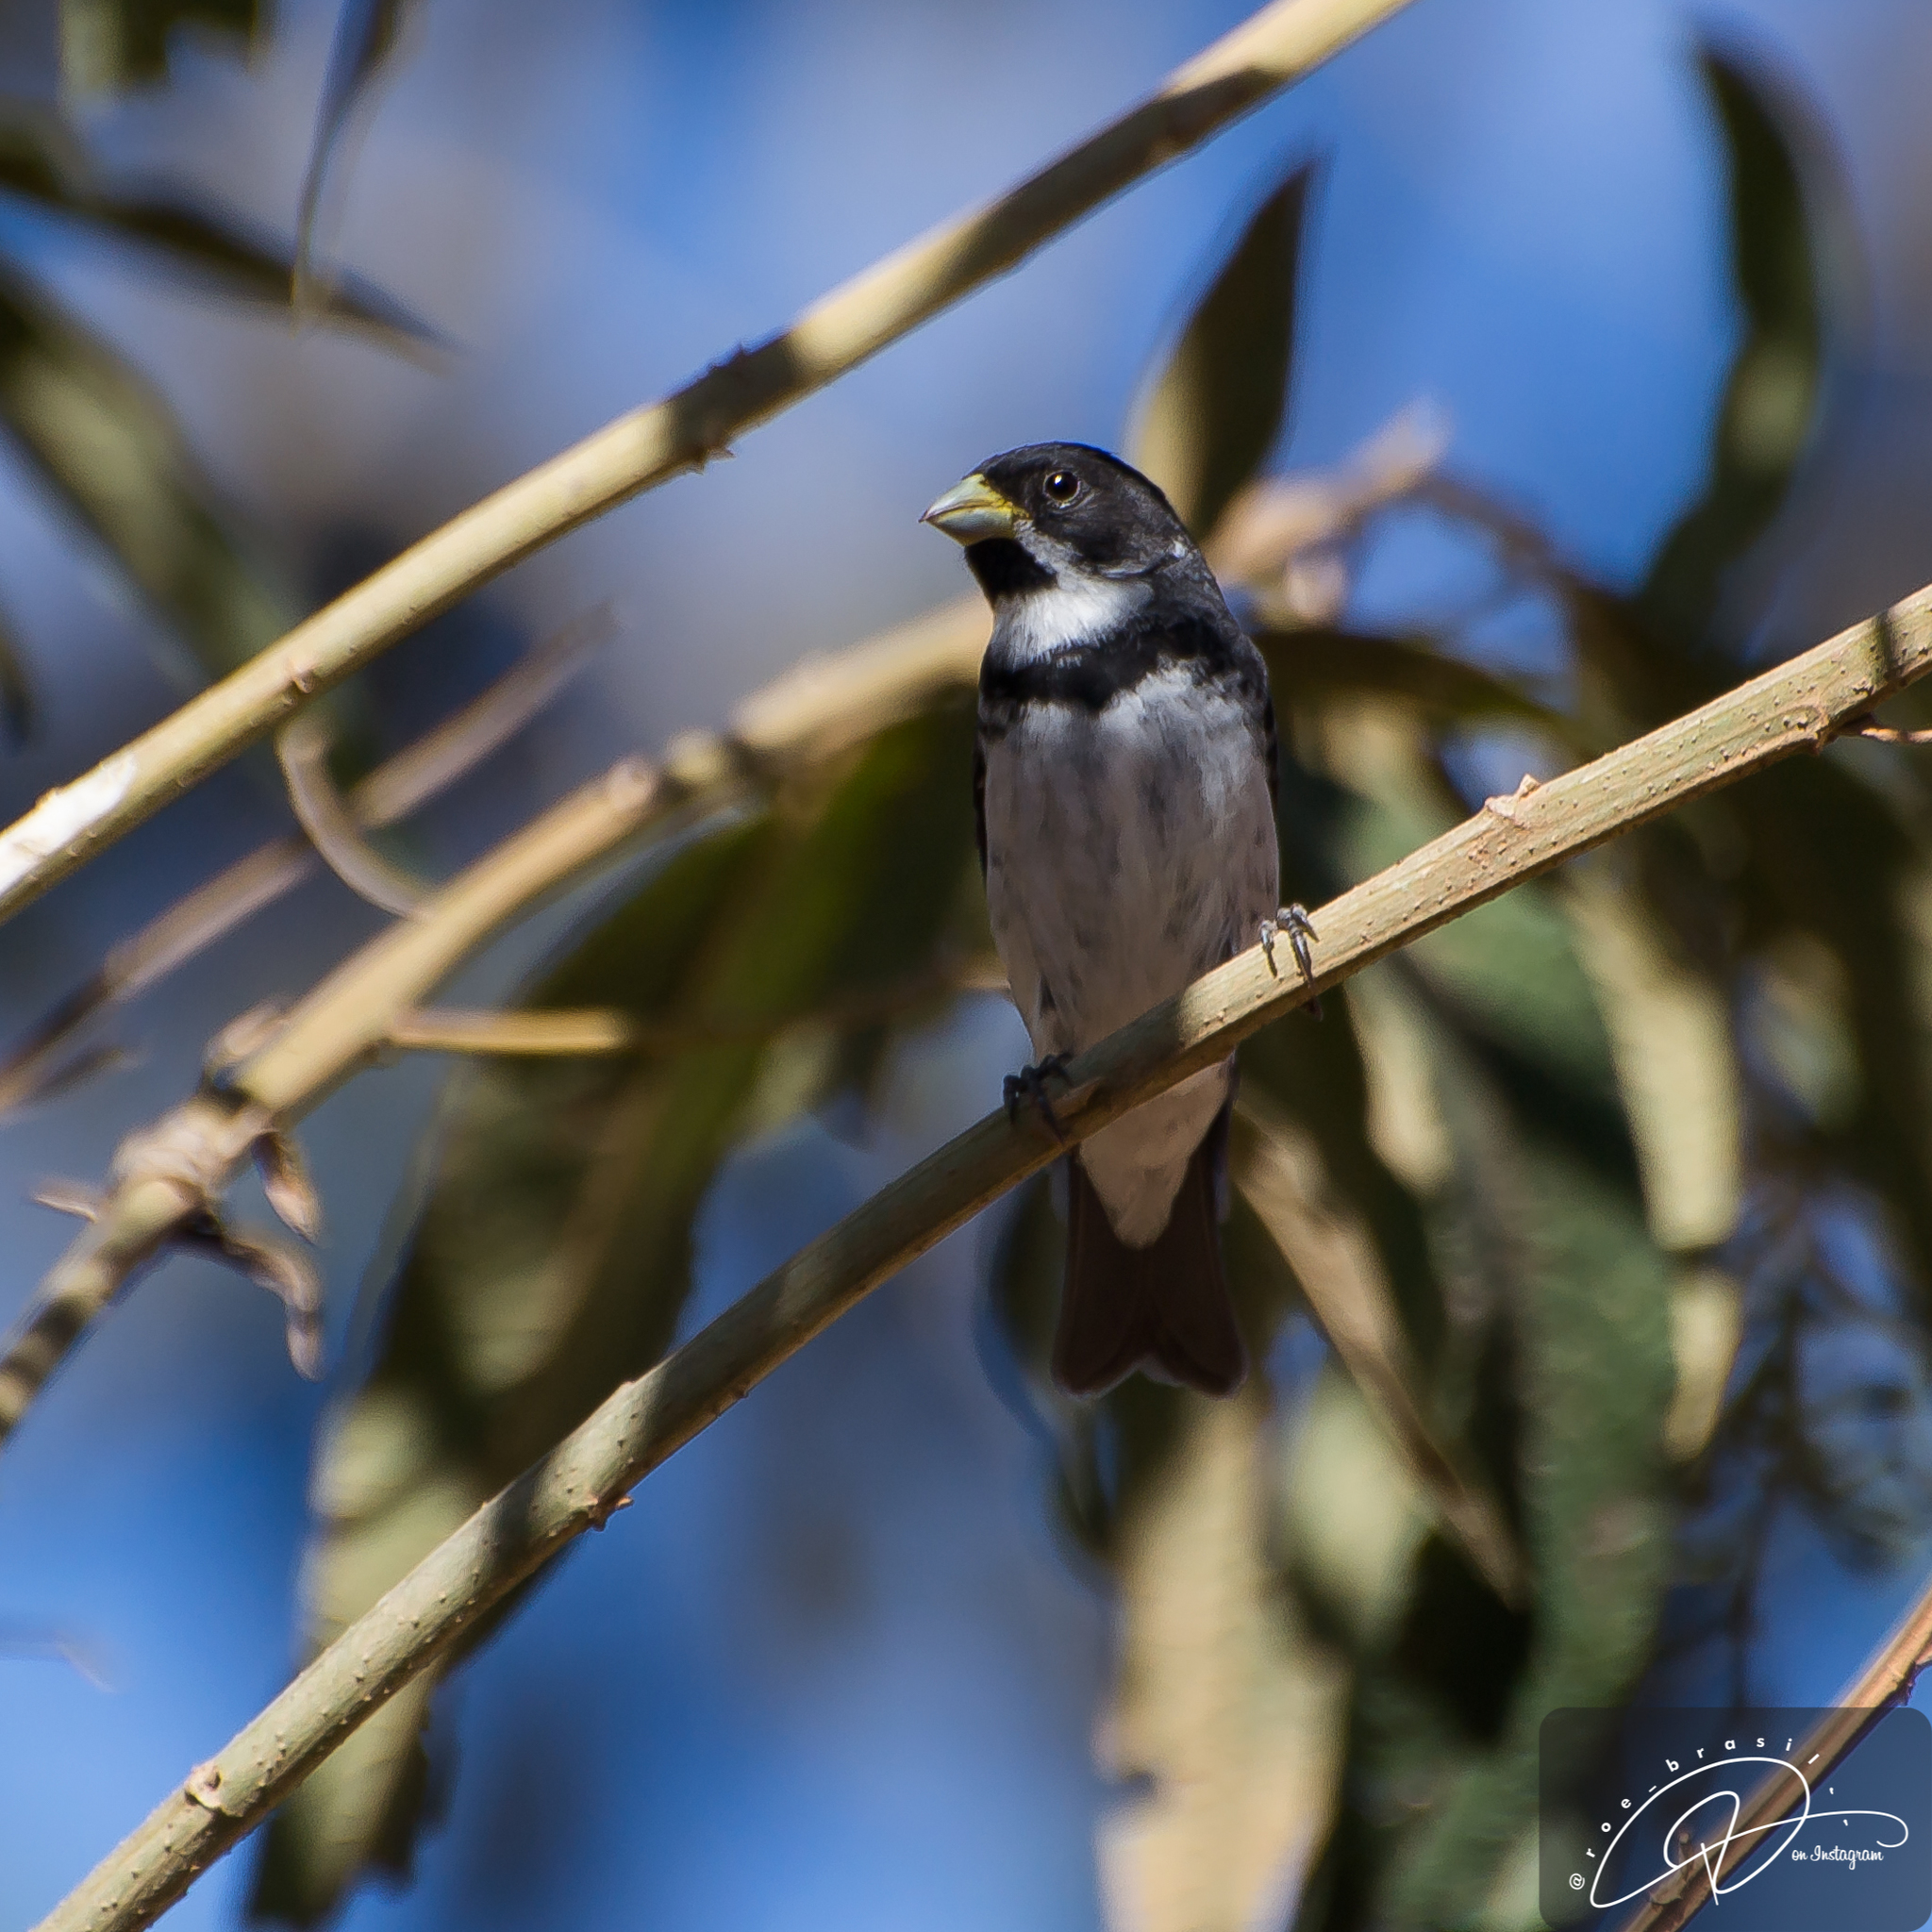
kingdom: Animalia
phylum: Chordata
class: Aves
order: Passeriformes
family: Thraupidae
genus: Sporophila
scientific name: Sporophila caerulescens
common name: Double-collared seedeater
